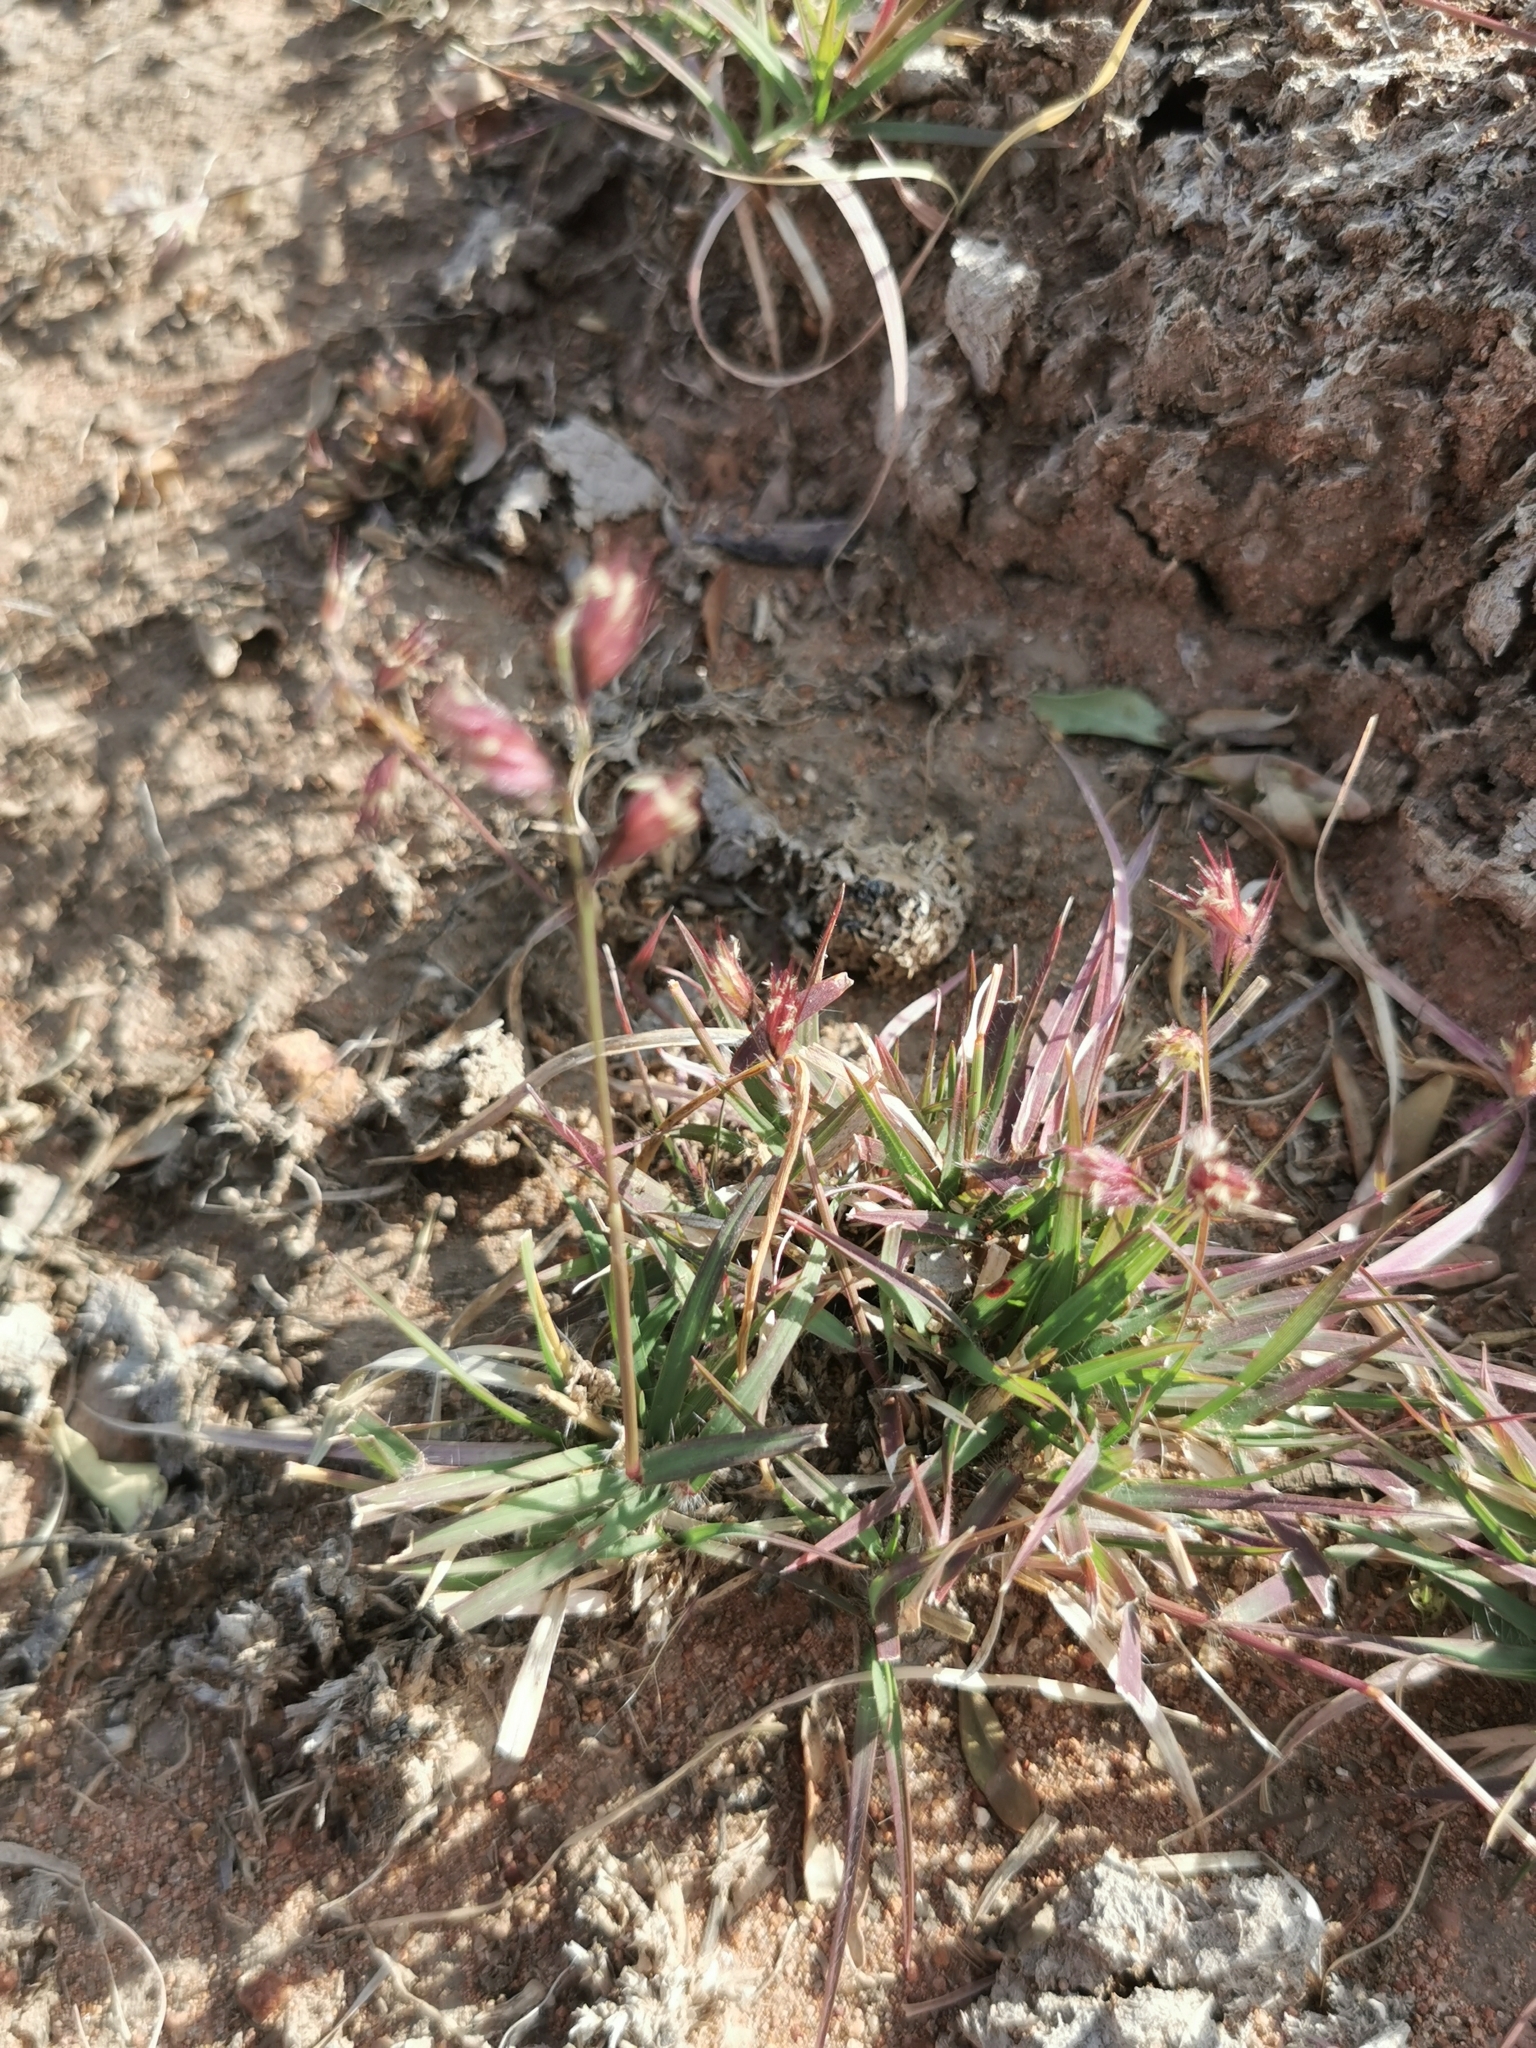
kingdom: Plantae
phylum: Tracheophyta
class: Liliopsida
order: Poales
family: Poaceae
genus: Bouteloua
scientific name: Bouteloua chondrosioides
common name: Sprucetop grama
